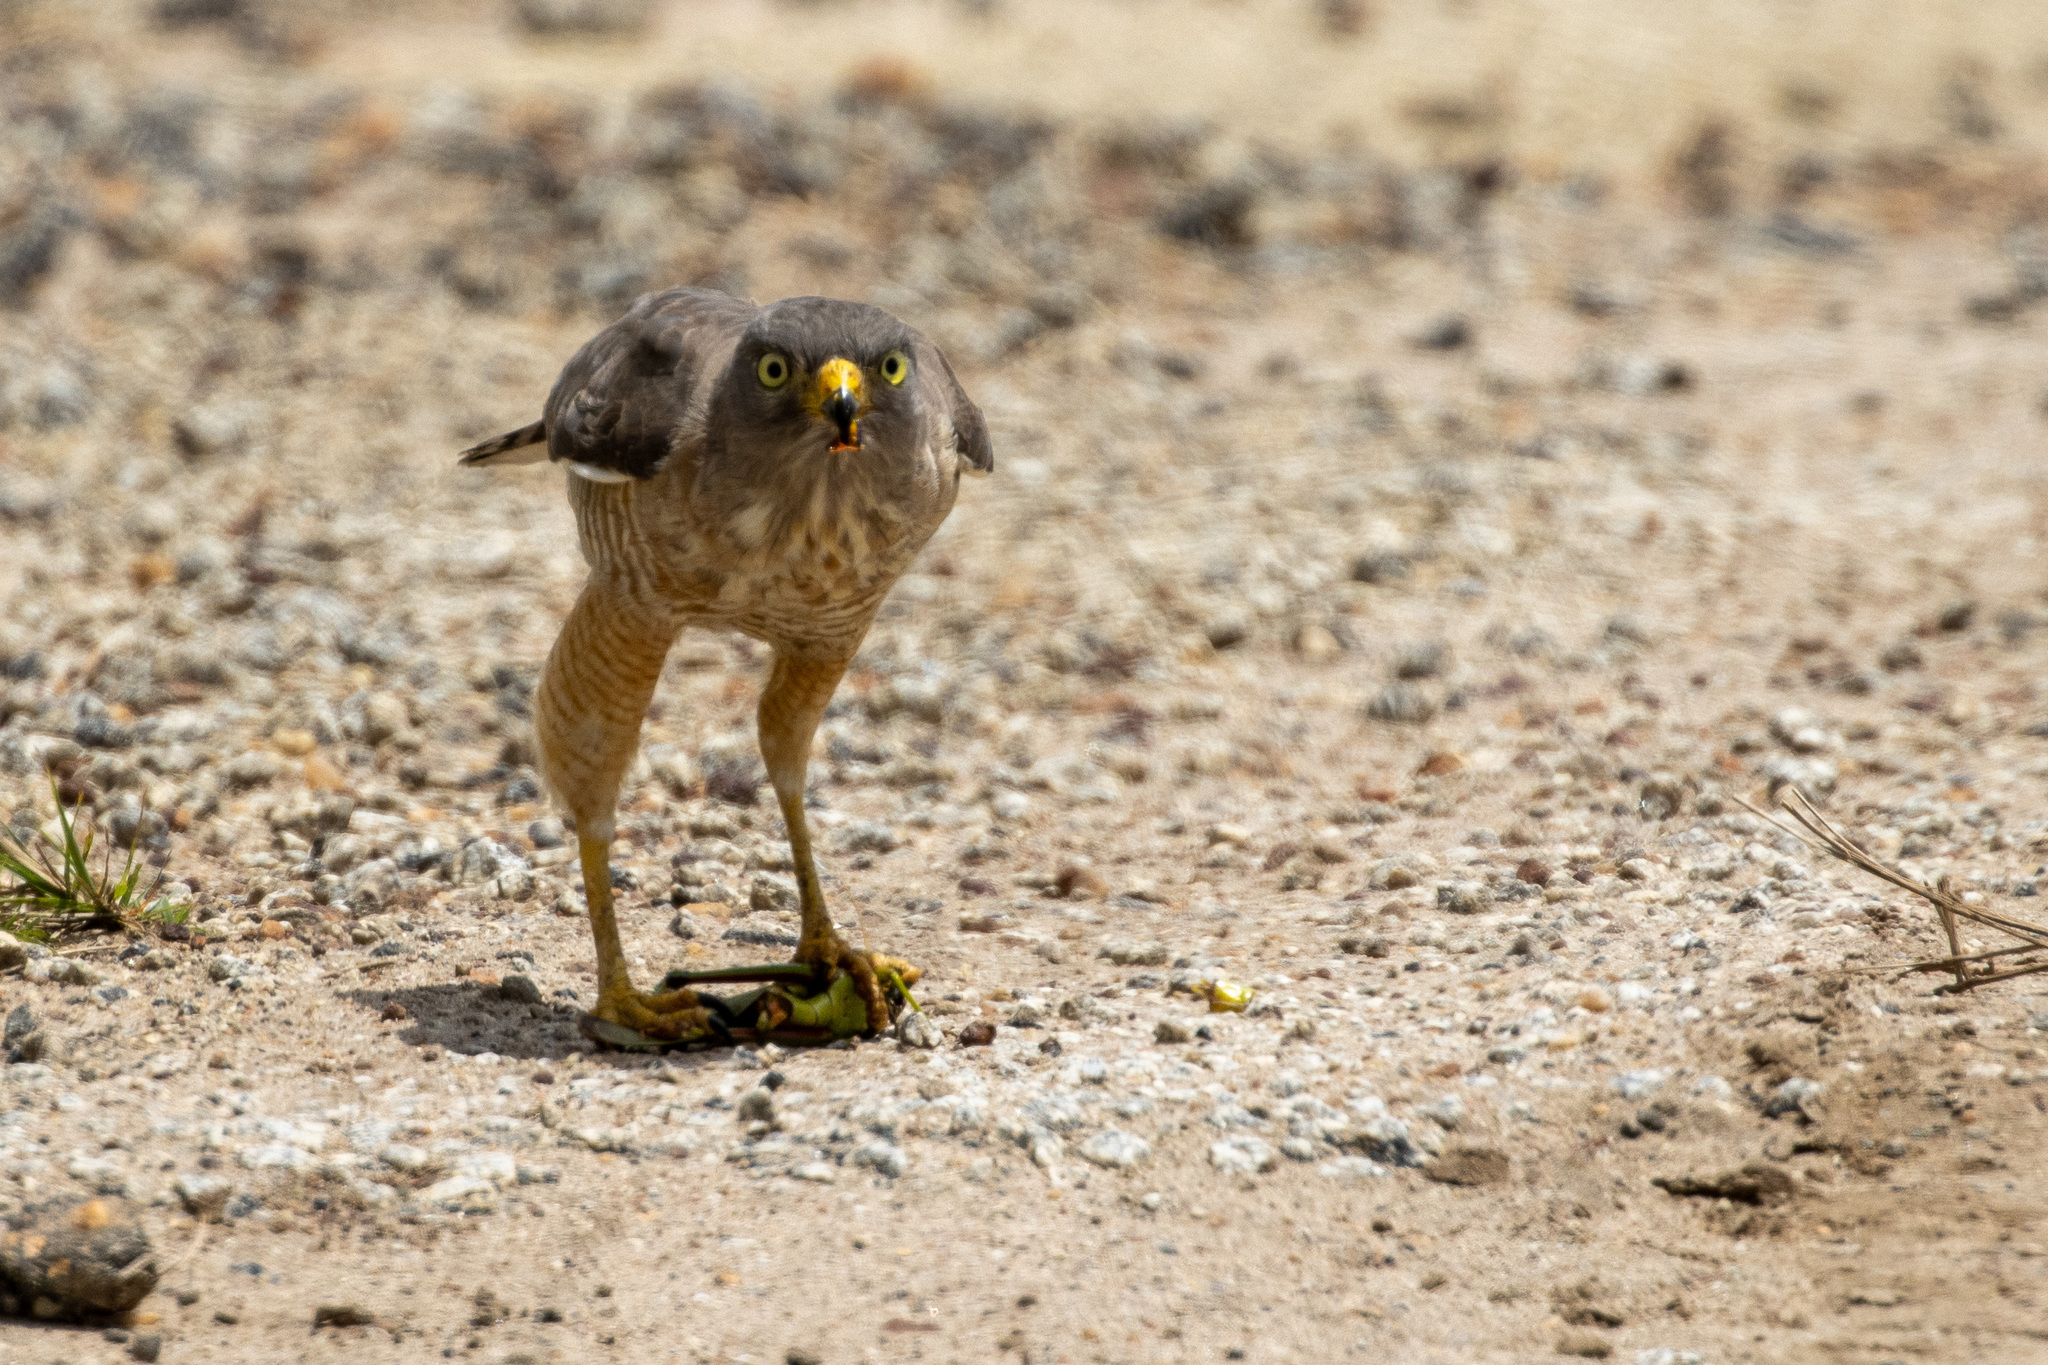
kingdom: Animalia
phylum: Chordata
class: Aves
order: Accipitriformes
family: Accipitridae
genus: Rupornis
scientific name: Rupornis magnirostris
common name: Roadside hawk
